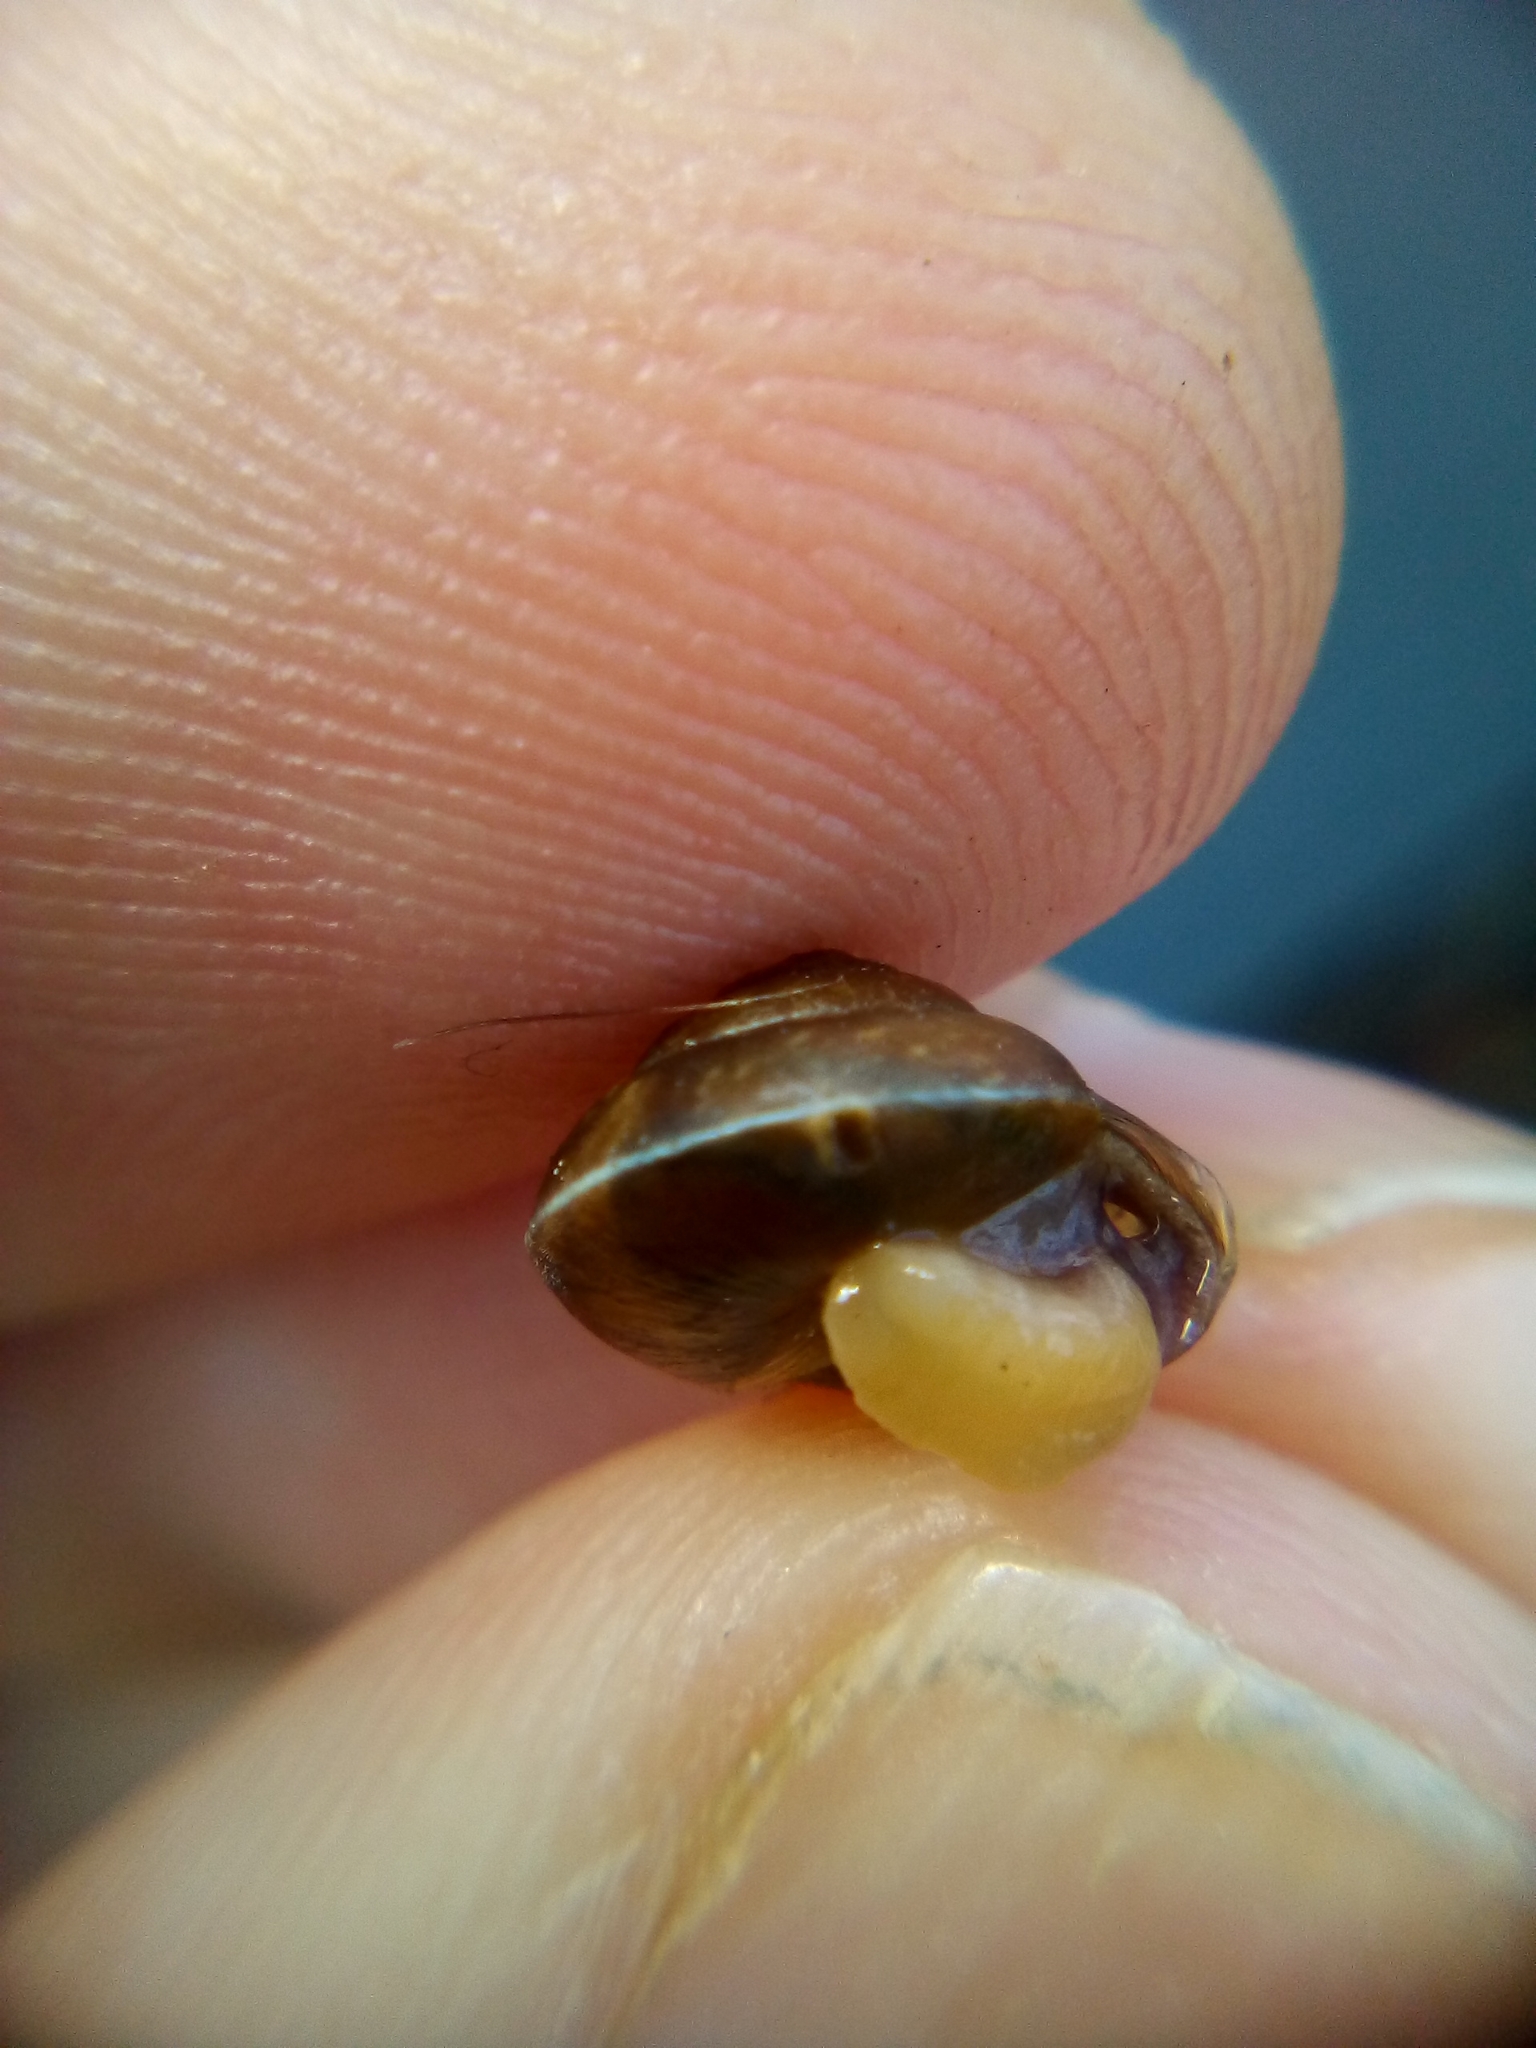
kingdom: Animalia
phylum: Mollusca
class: Gastropoda
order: Stylommatophora
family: Hygromiidae
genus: Hygromia
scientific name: Hygromia cinctella
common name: Girdled snail
